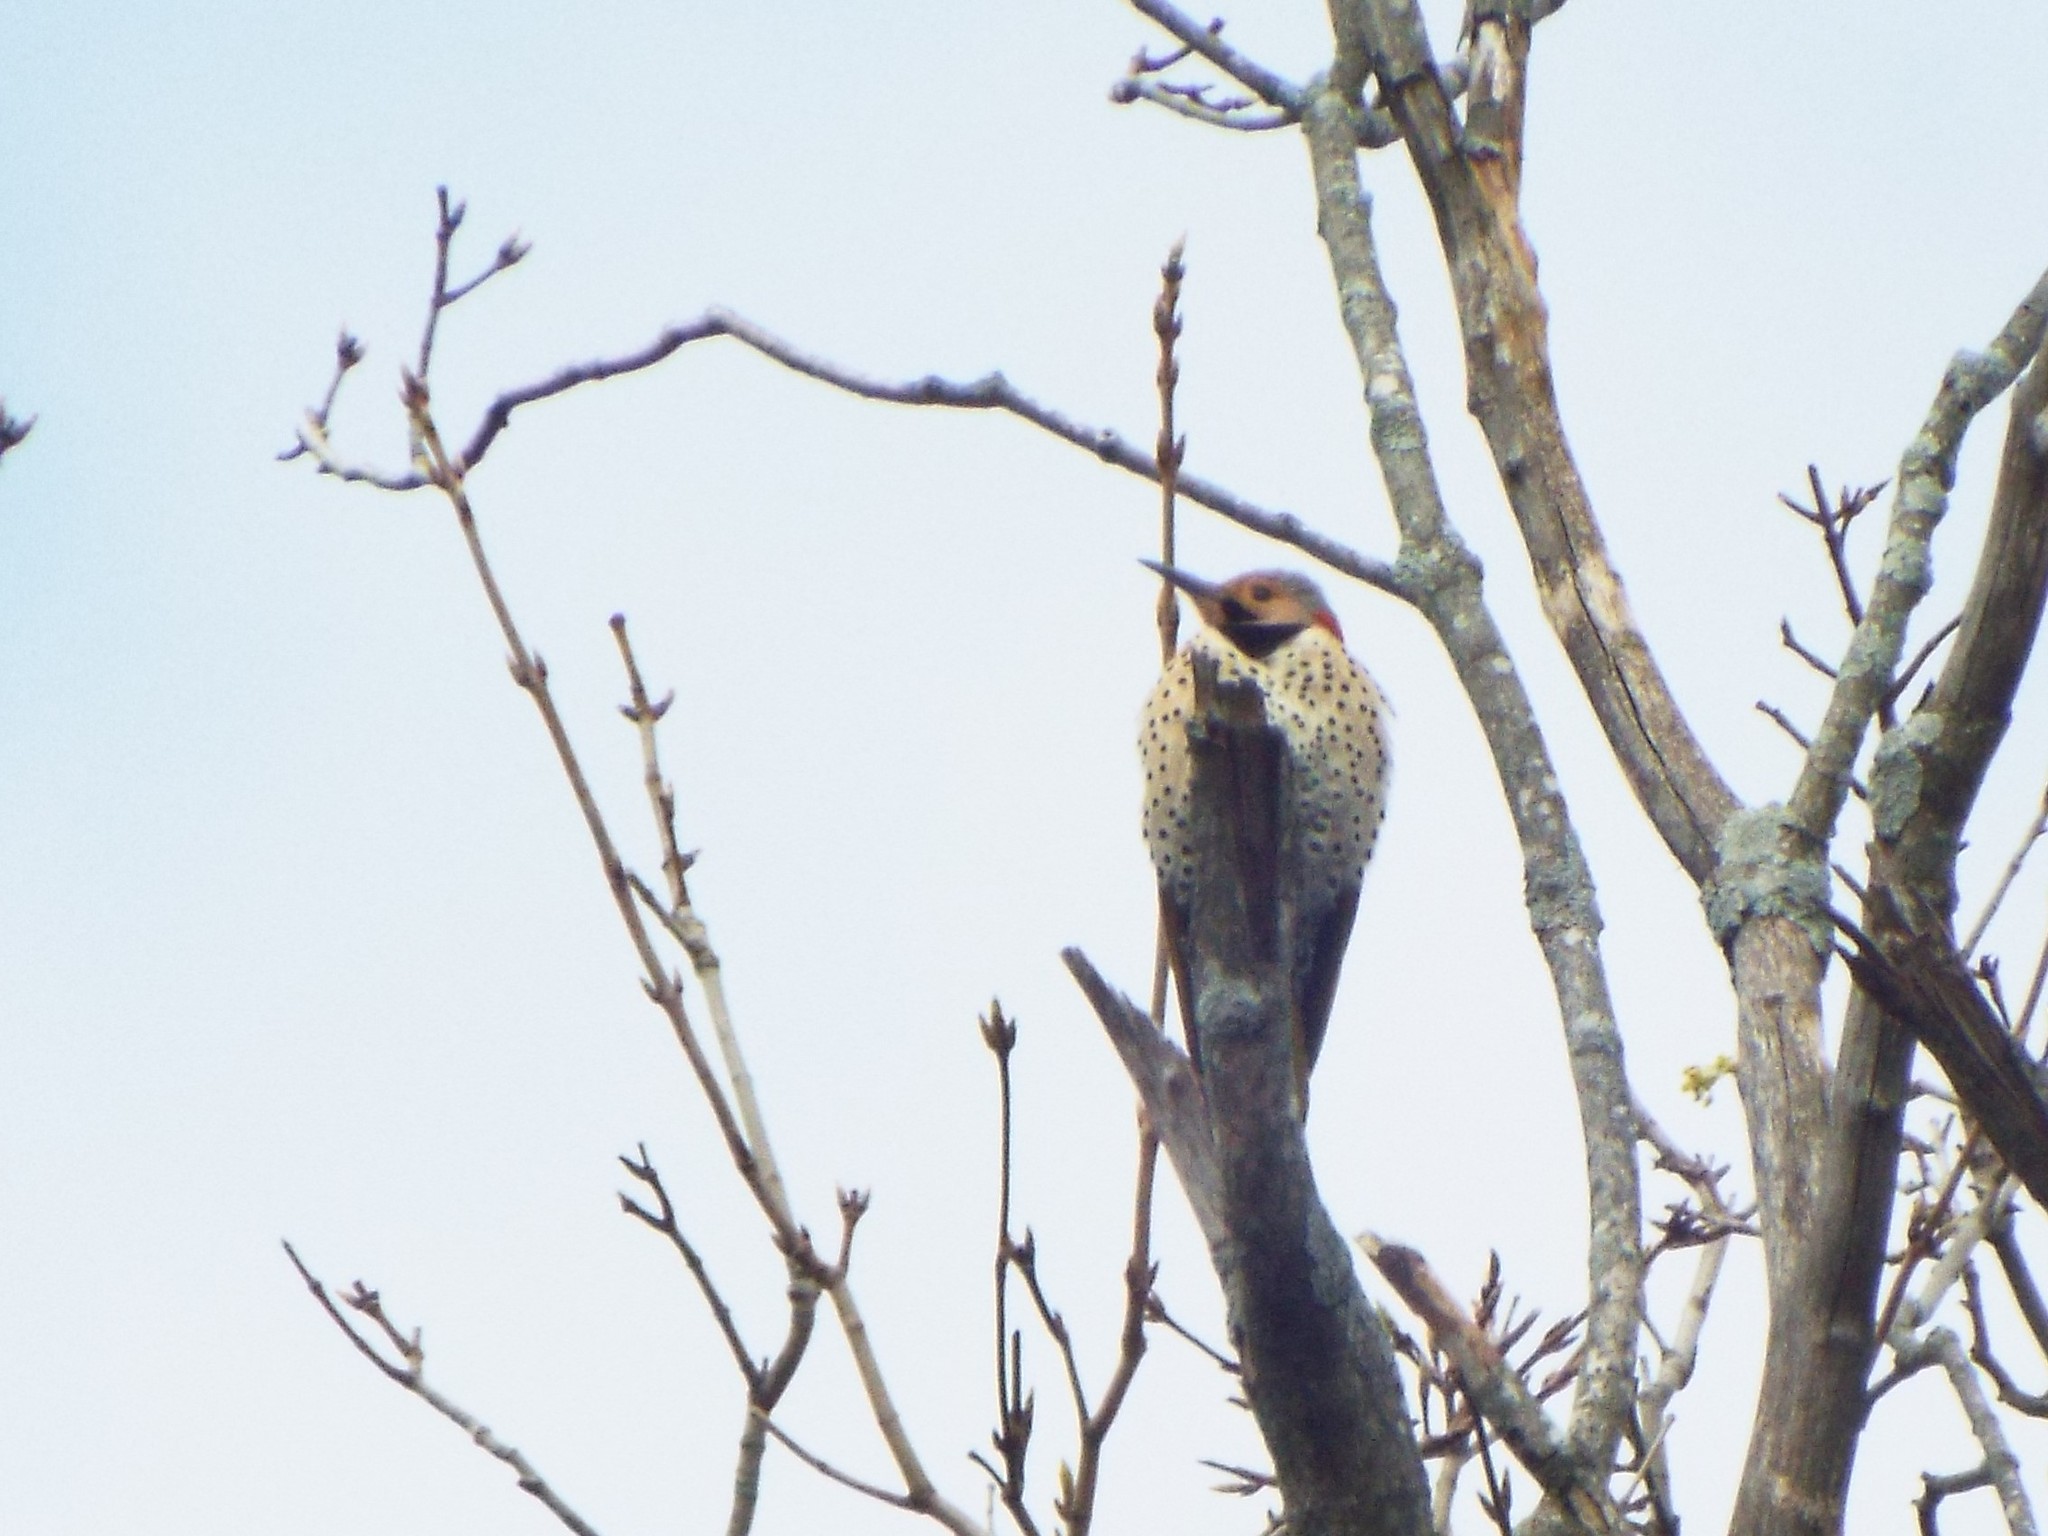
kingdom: Animalia
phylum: Chordata
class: Aves
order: Piciformes
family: Picidae
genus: Colaptes
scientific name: Colaptes auratus
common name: Northern flicker
